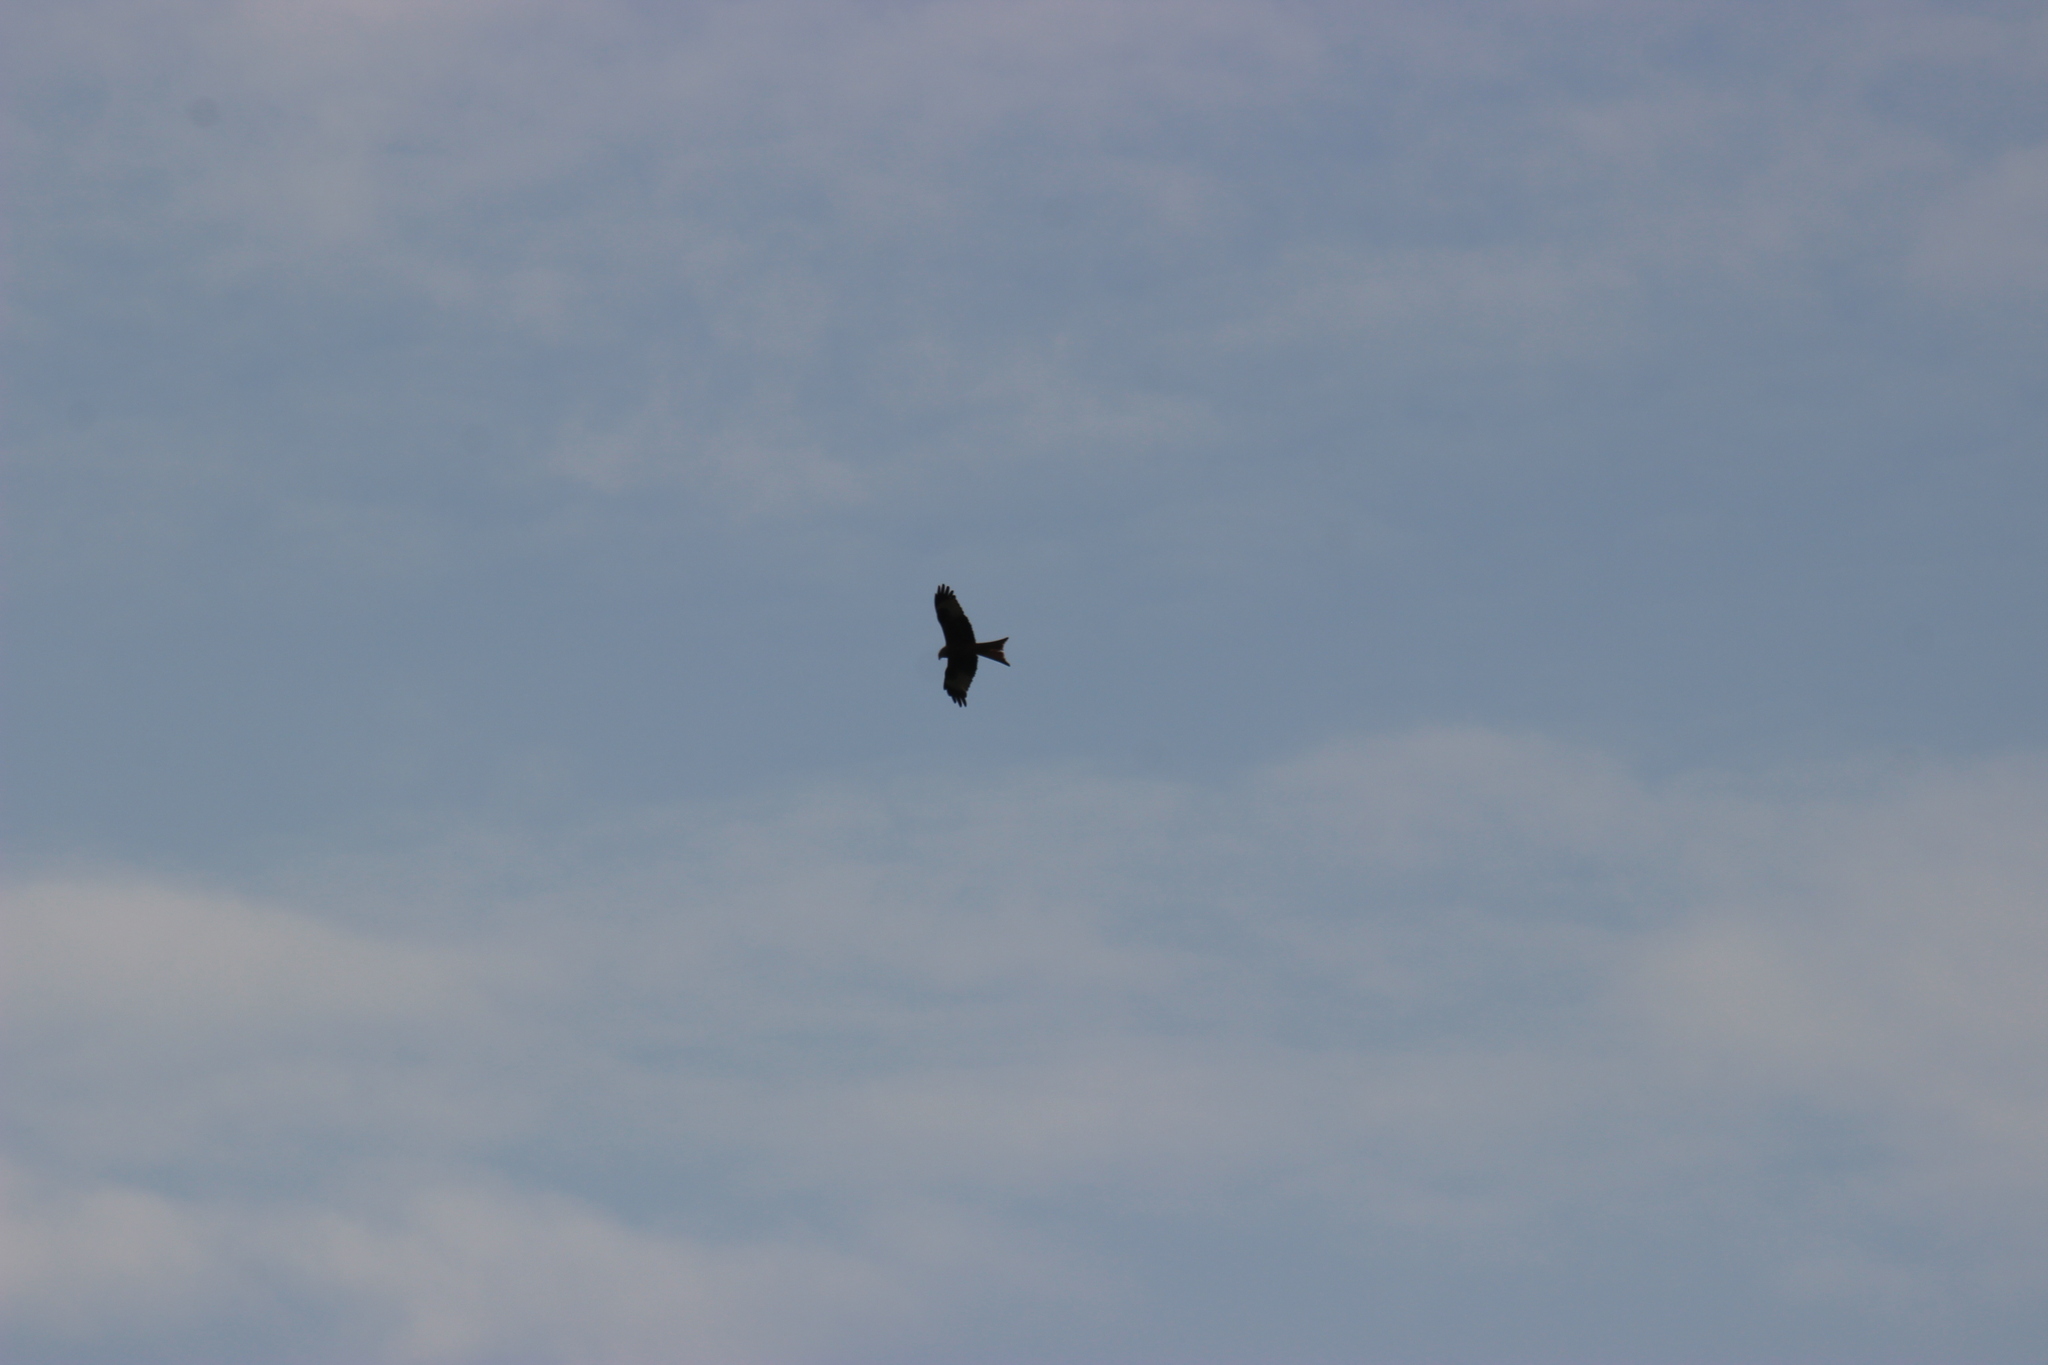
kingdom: Animalia
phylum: Chordata
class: Aves
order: Accipitriformes
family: Accipitridae
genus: Milvus
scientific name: Milvus milvus
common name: Red kite
